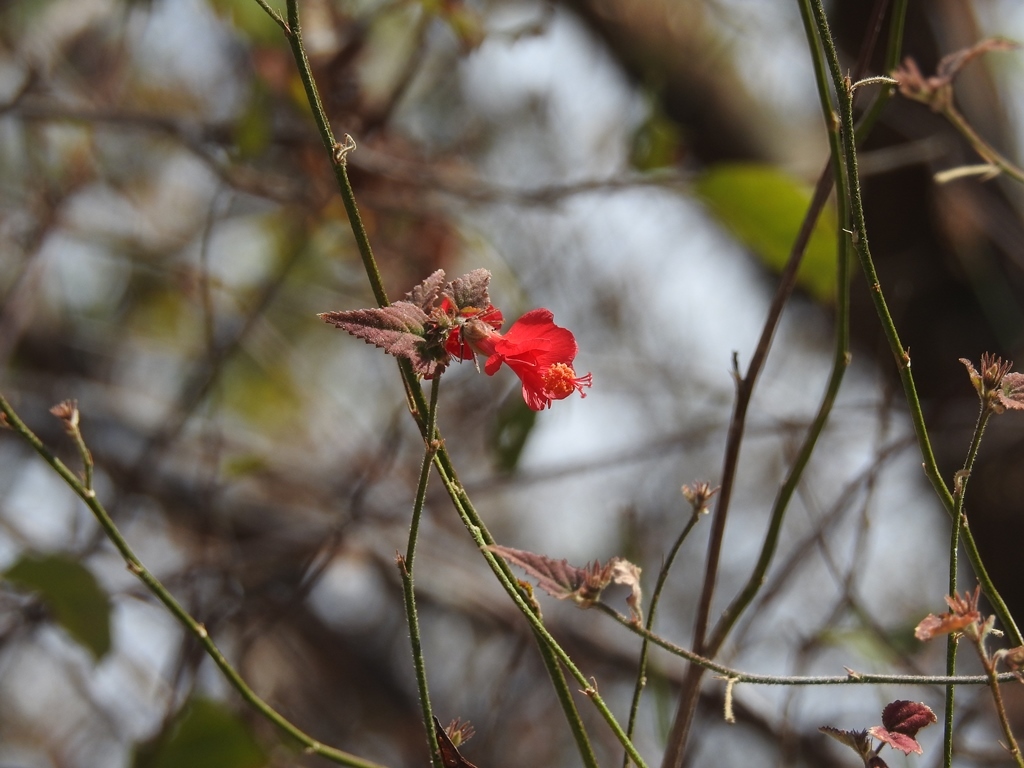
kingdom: Plantae
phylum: Tracheophyta
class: Magnoliopsida
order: Malvales
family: Malvaceae
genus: Hibiscus
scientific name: Hibiscus poeppigii
